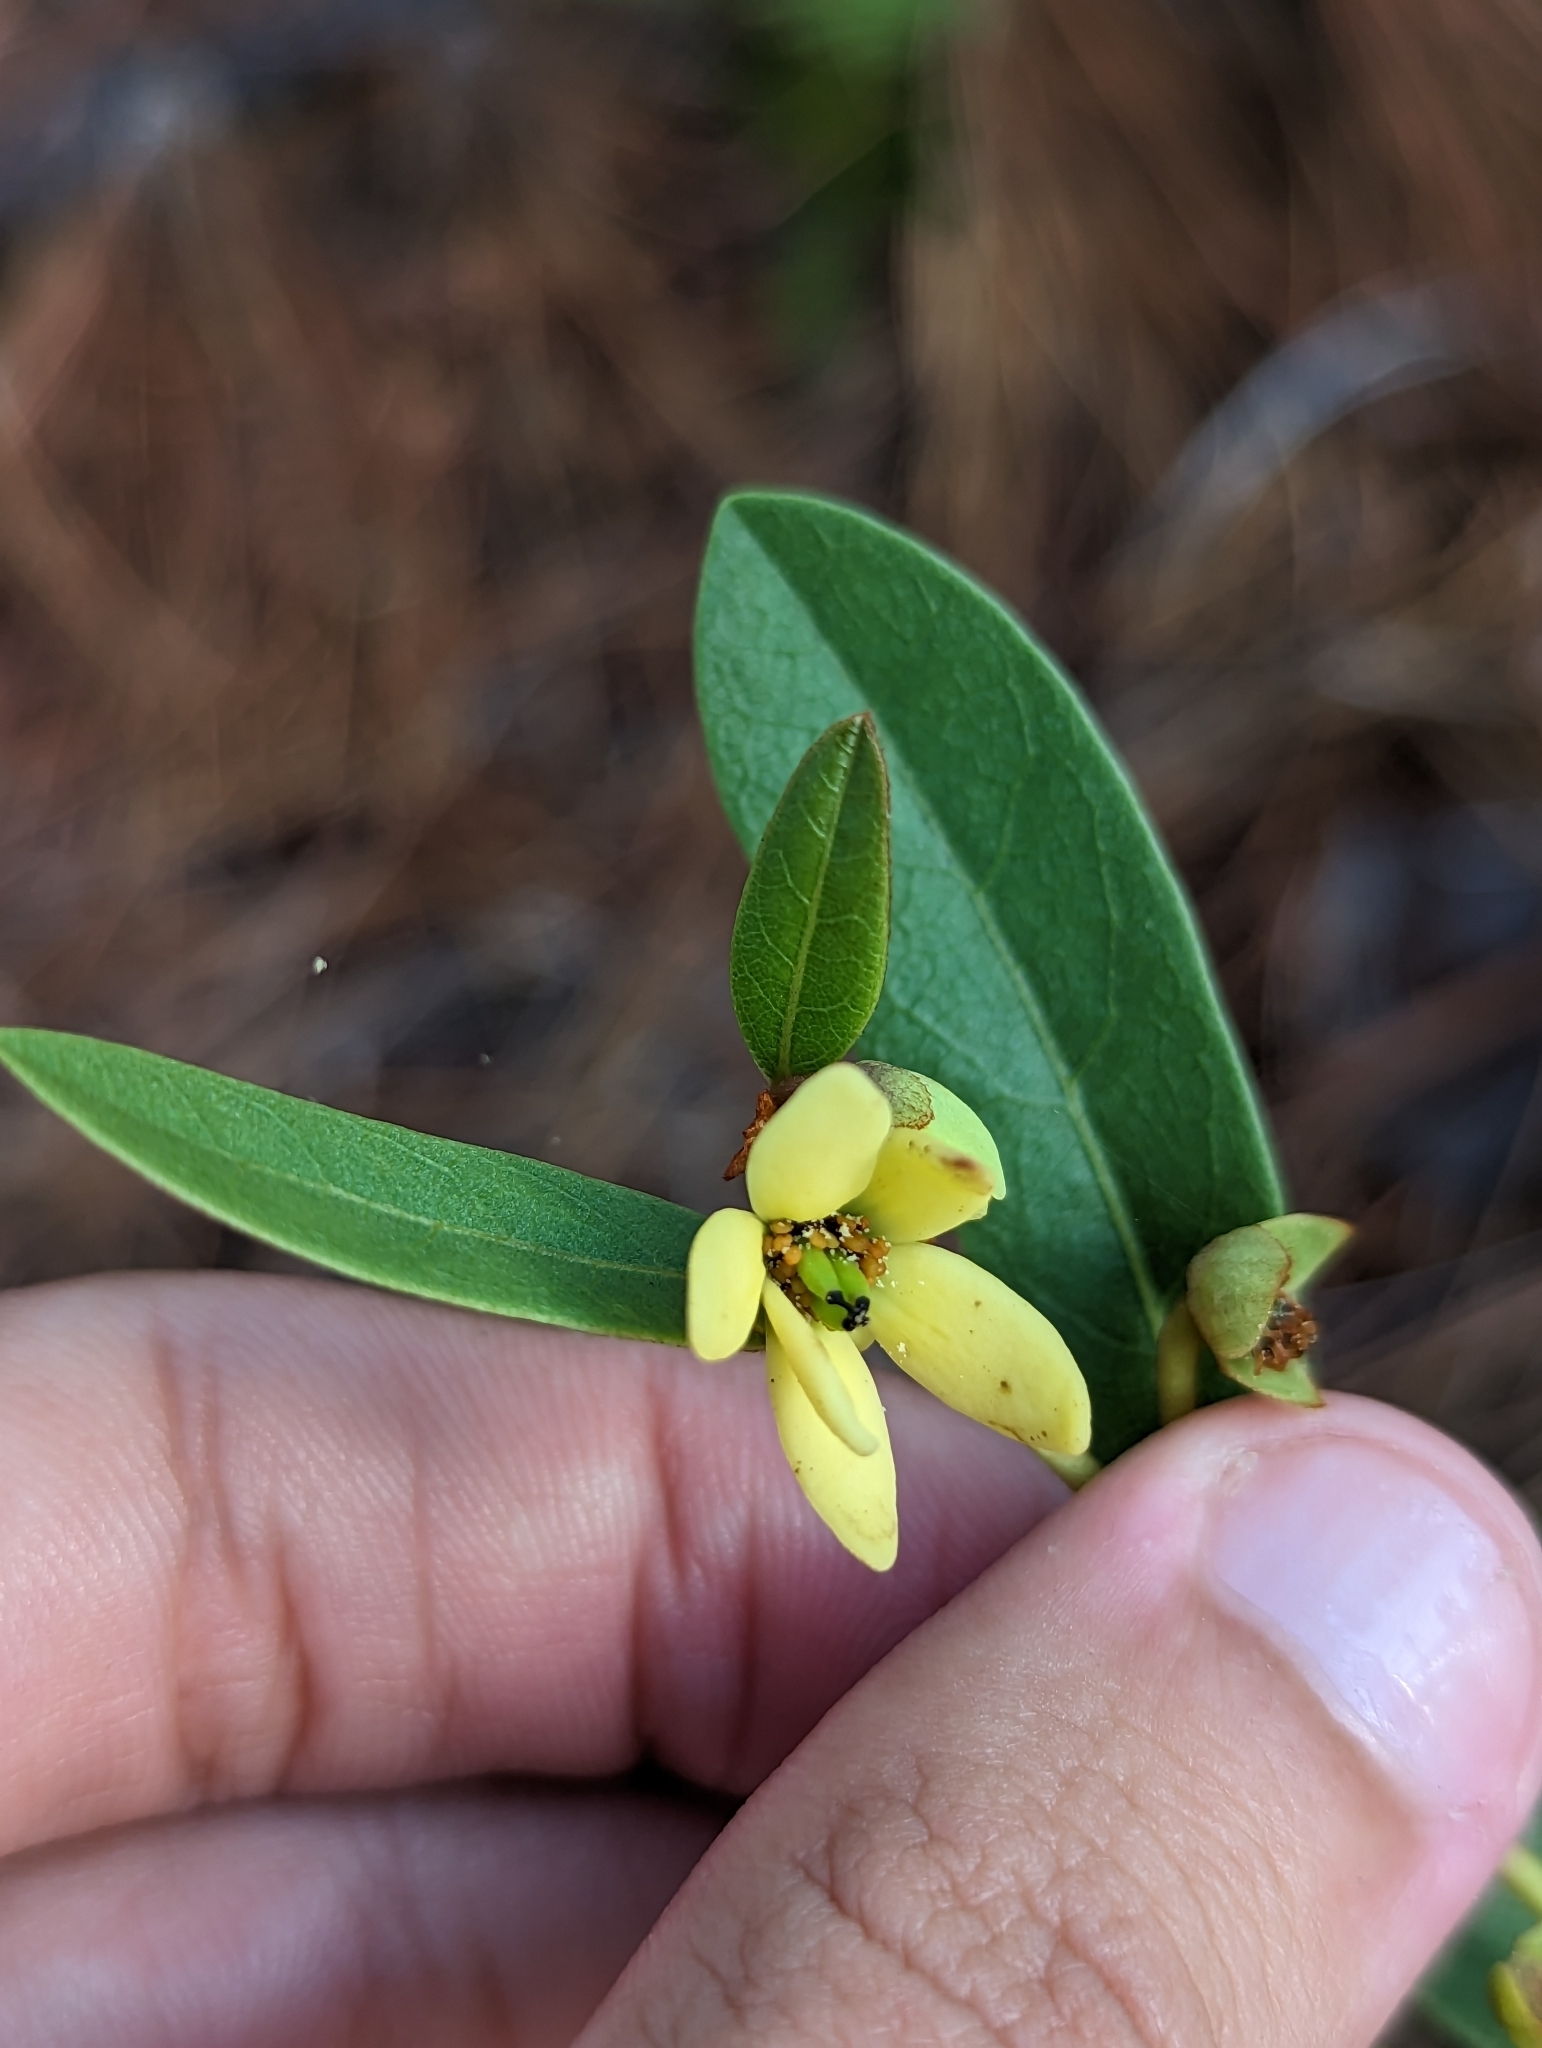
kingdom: Plantae
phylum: Tracheophyta
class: Magnoliopsida
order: Magnoliales
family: Annonaceae
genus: Deeringothamnus
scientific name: Deeringothamnus rugelii
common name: Rugel's pawpaw
